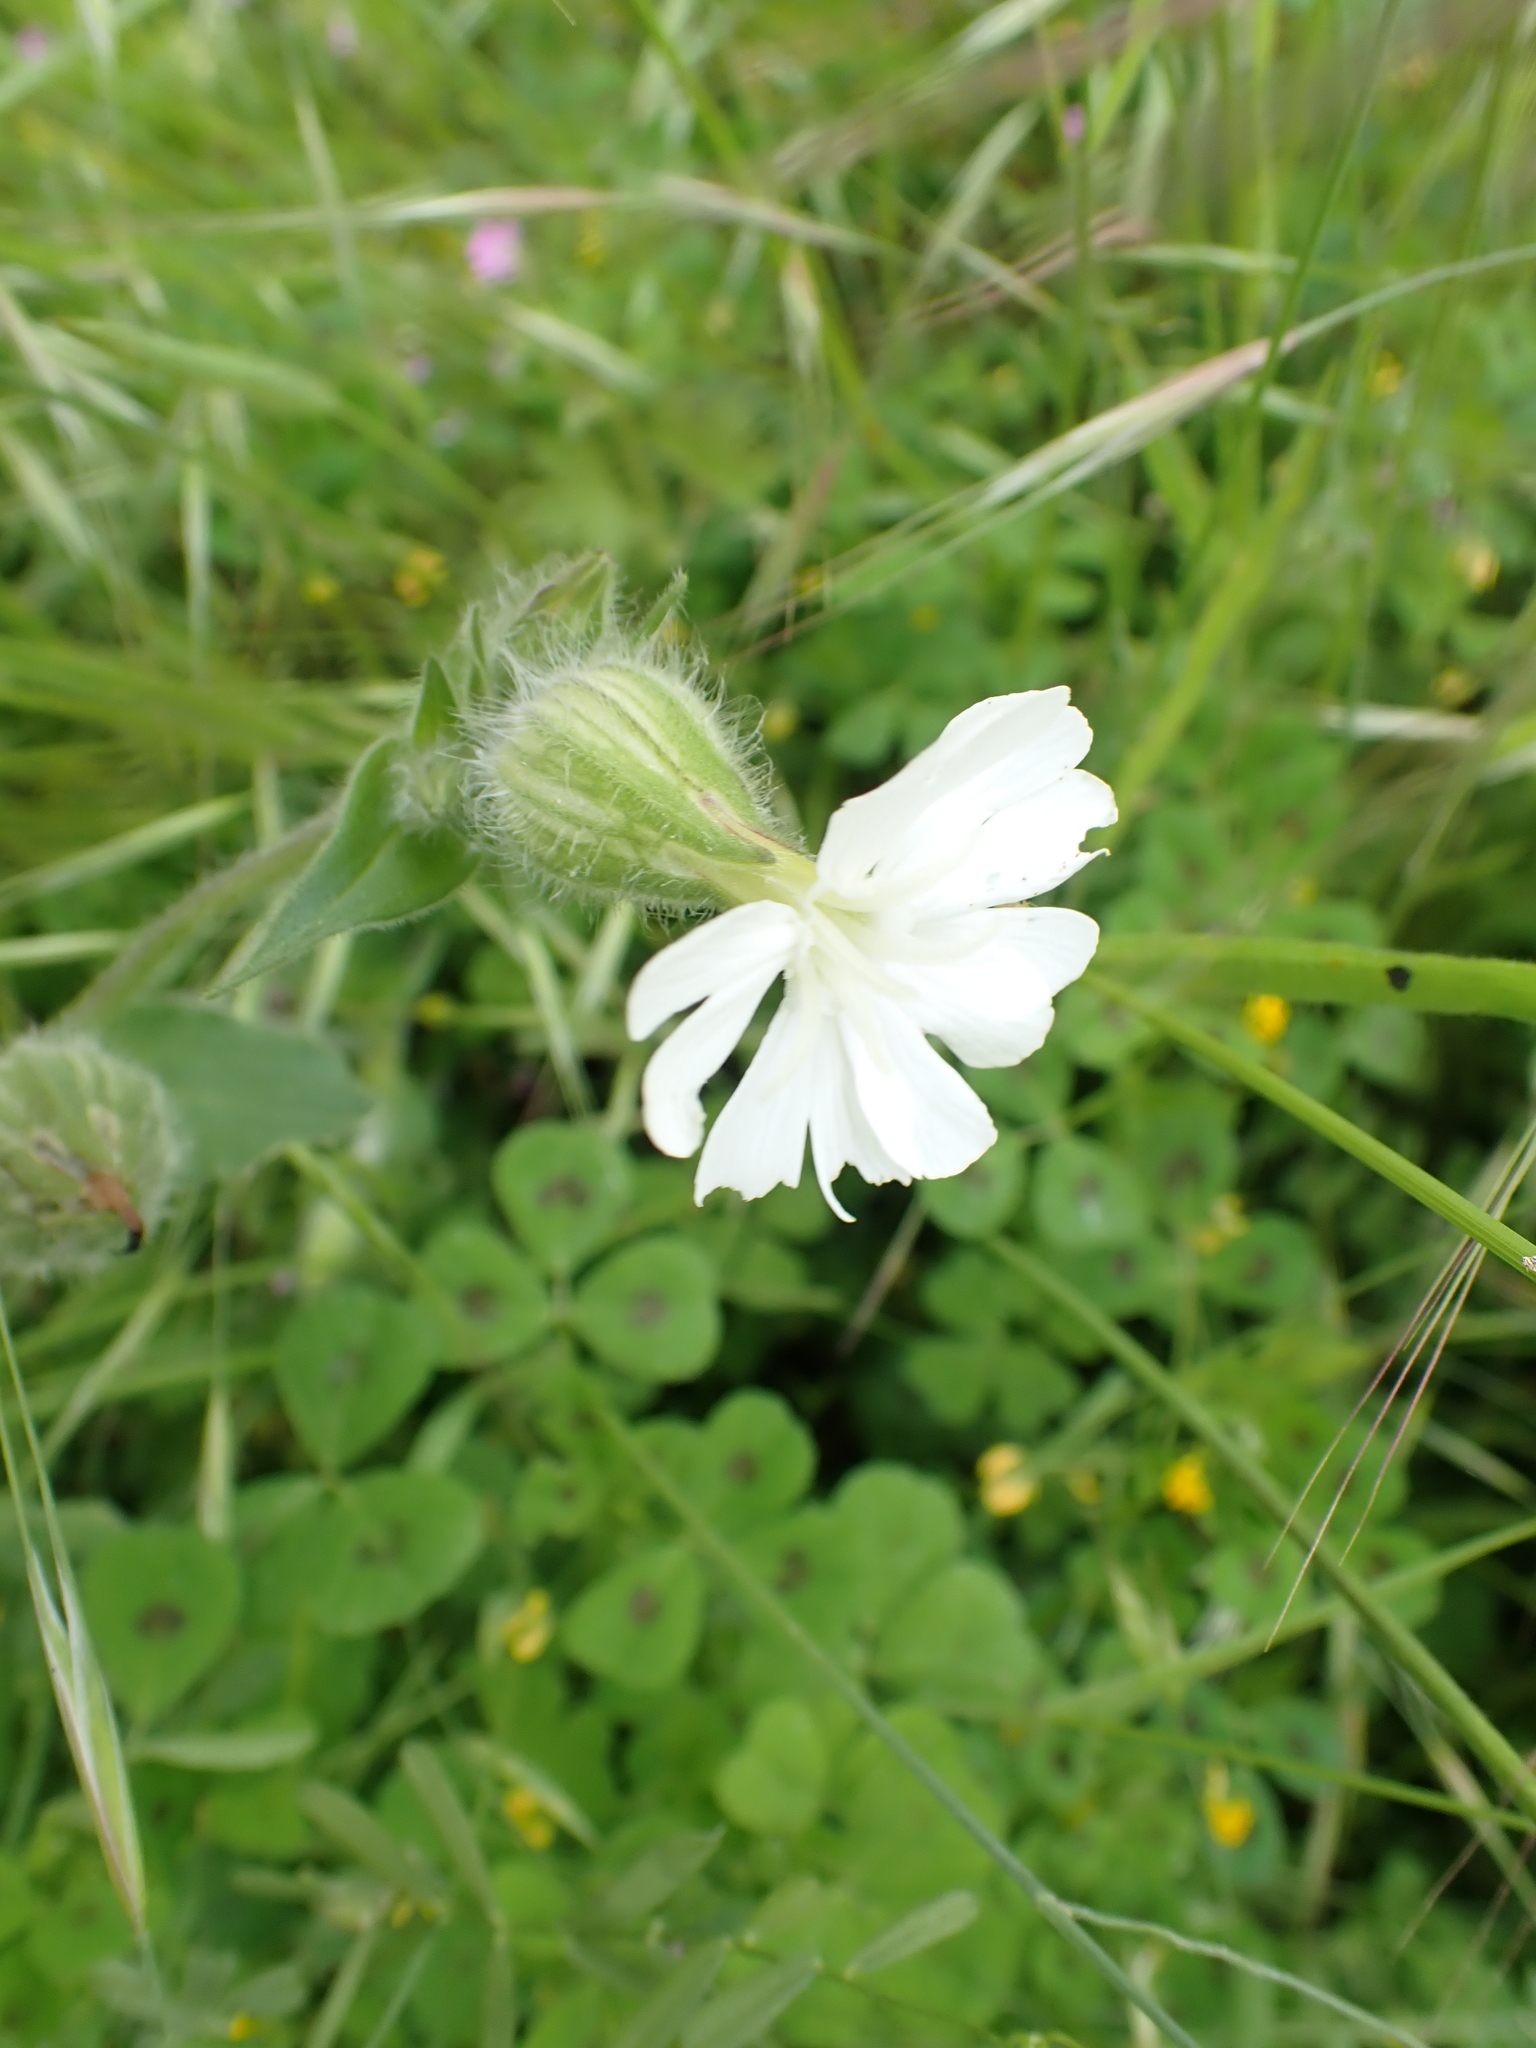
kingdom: Plantae
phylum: Tracheophyta
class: Magnoliopsida
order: Caryophyllales
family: Caryophyllaceae
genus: Silene
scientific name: Silene latifolia
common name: White campion
